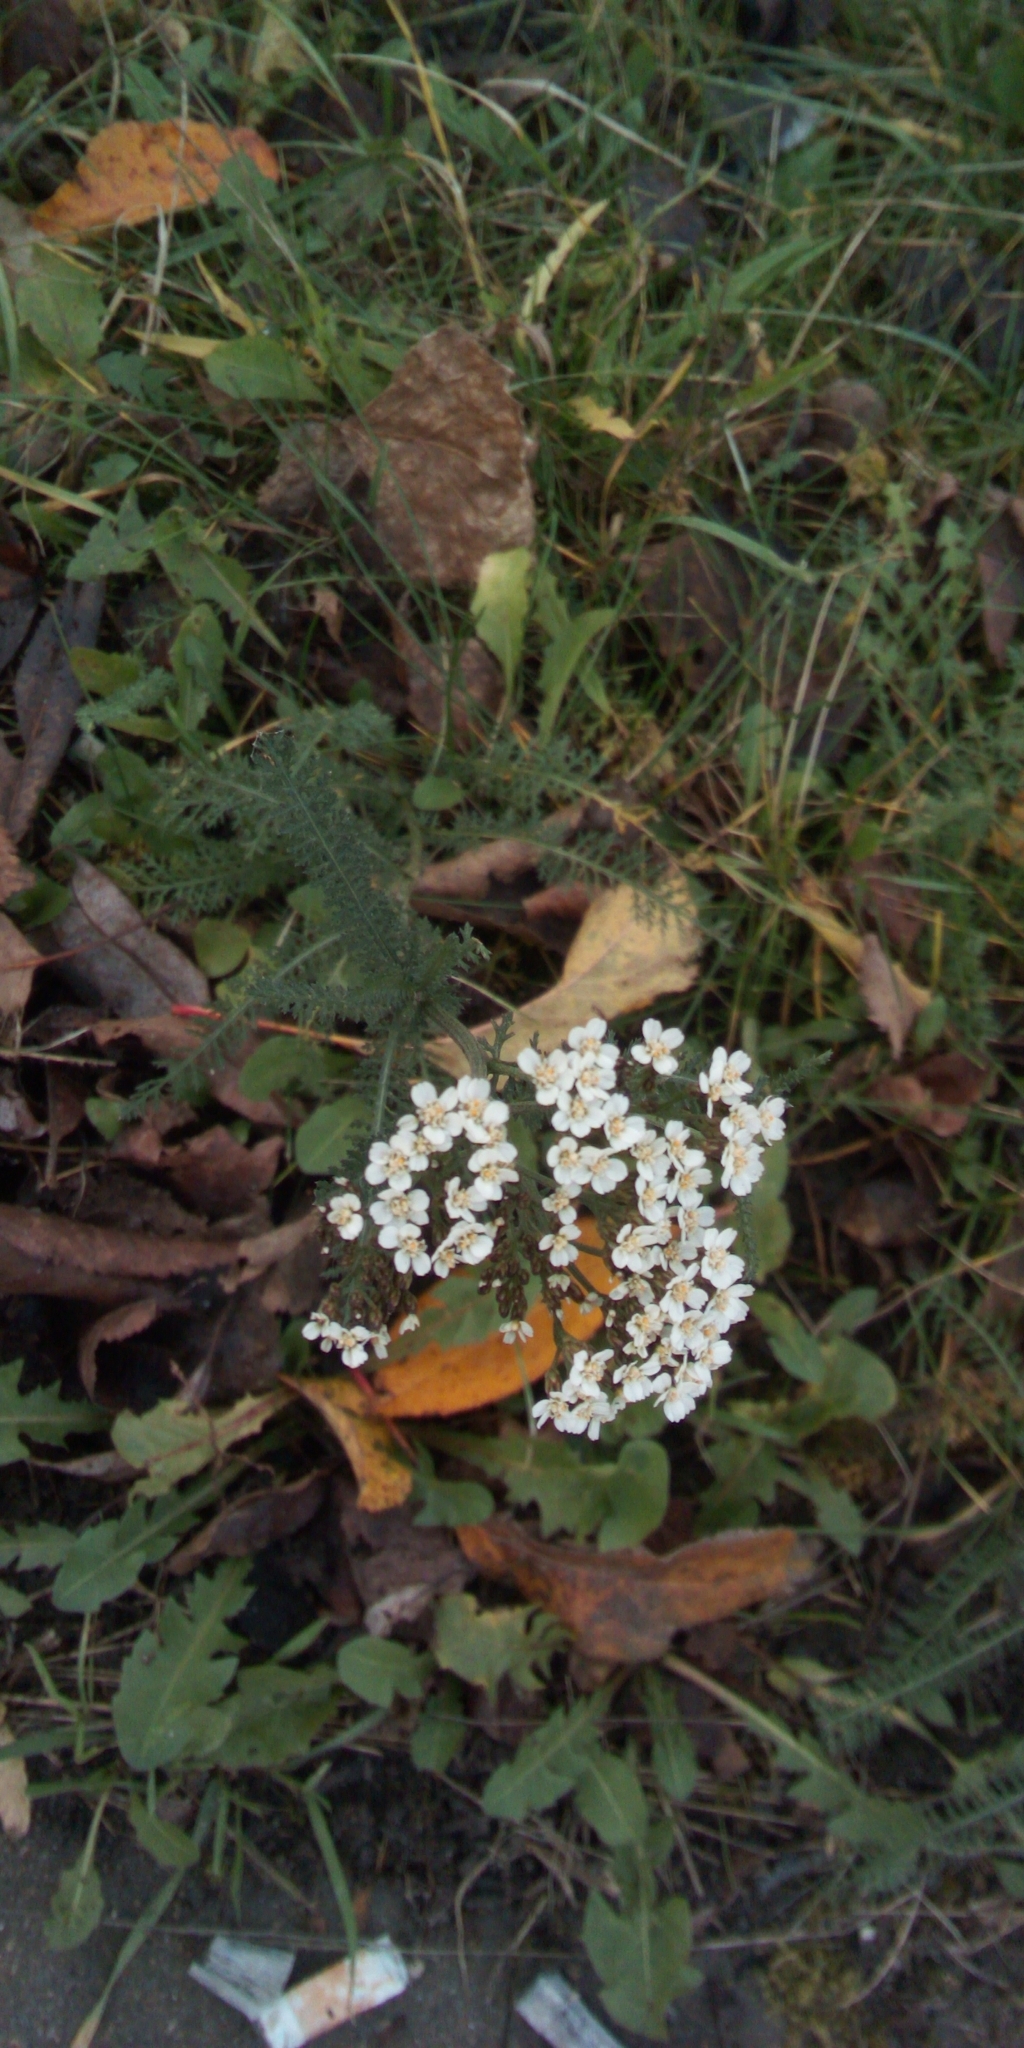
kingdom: Plantae
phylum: Tracheophyta
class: Magnoliopsida
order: Asterales
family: Asteraceae
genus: Achillea
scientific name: Achillea millefolium
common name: Yarrow
